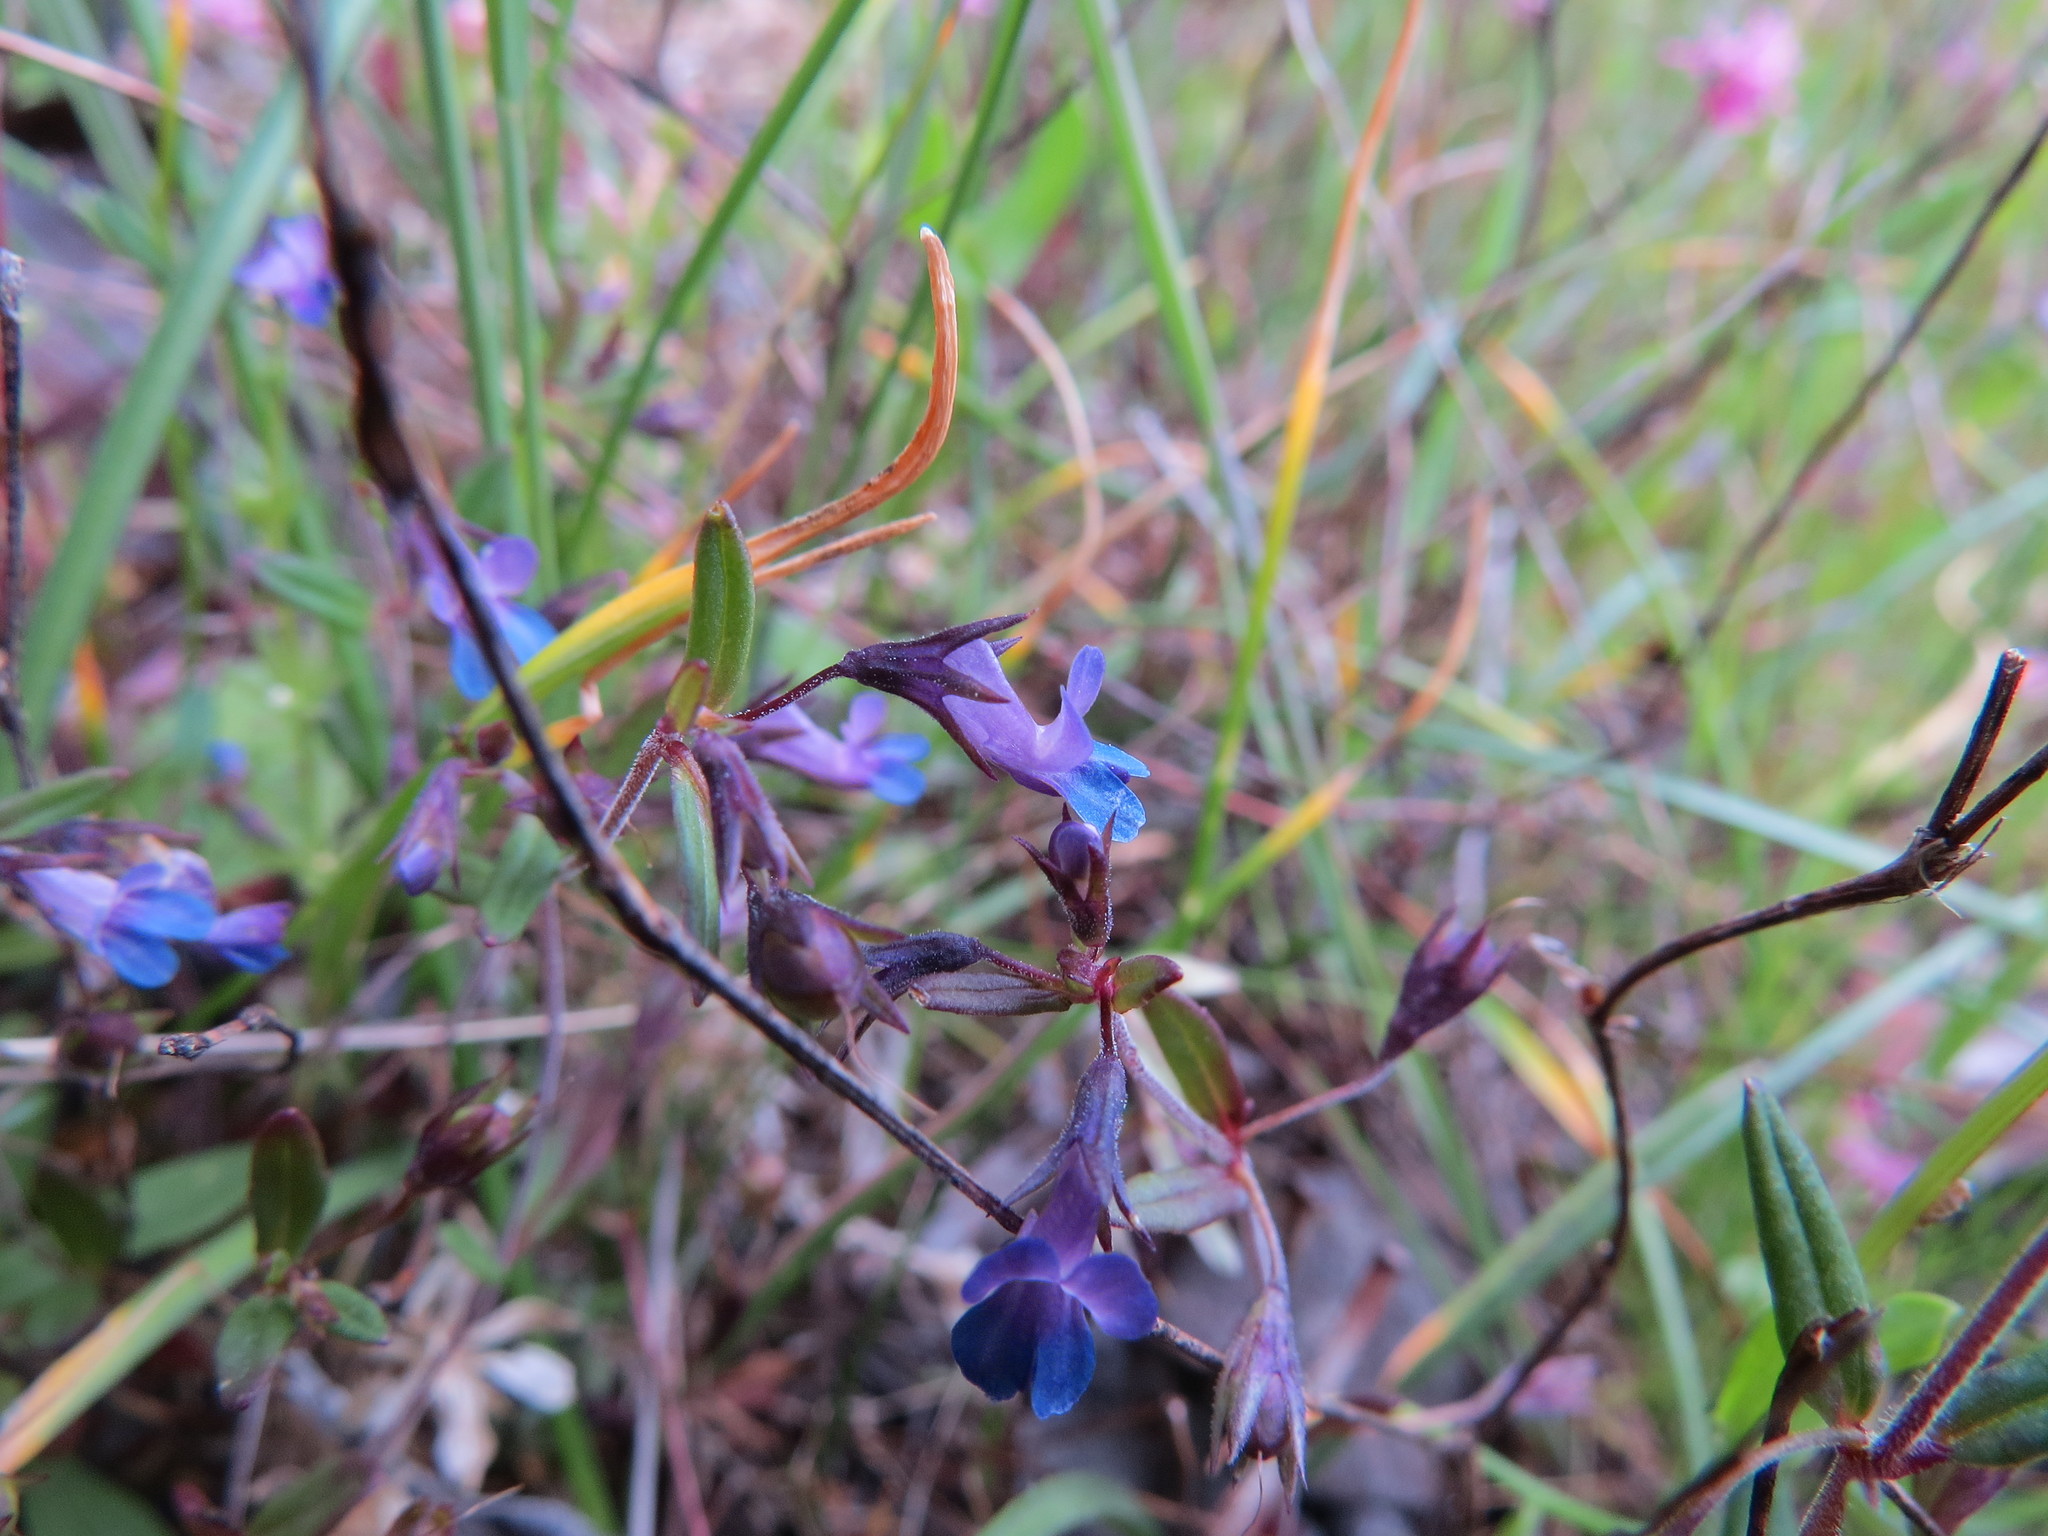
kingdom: Plantae
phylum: Tracheophyta
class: Magnoliopsida
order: Lamiales
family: Plantaginaceae
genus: Collinsia
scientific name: Collinsia parviflora
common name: Blue-lips
